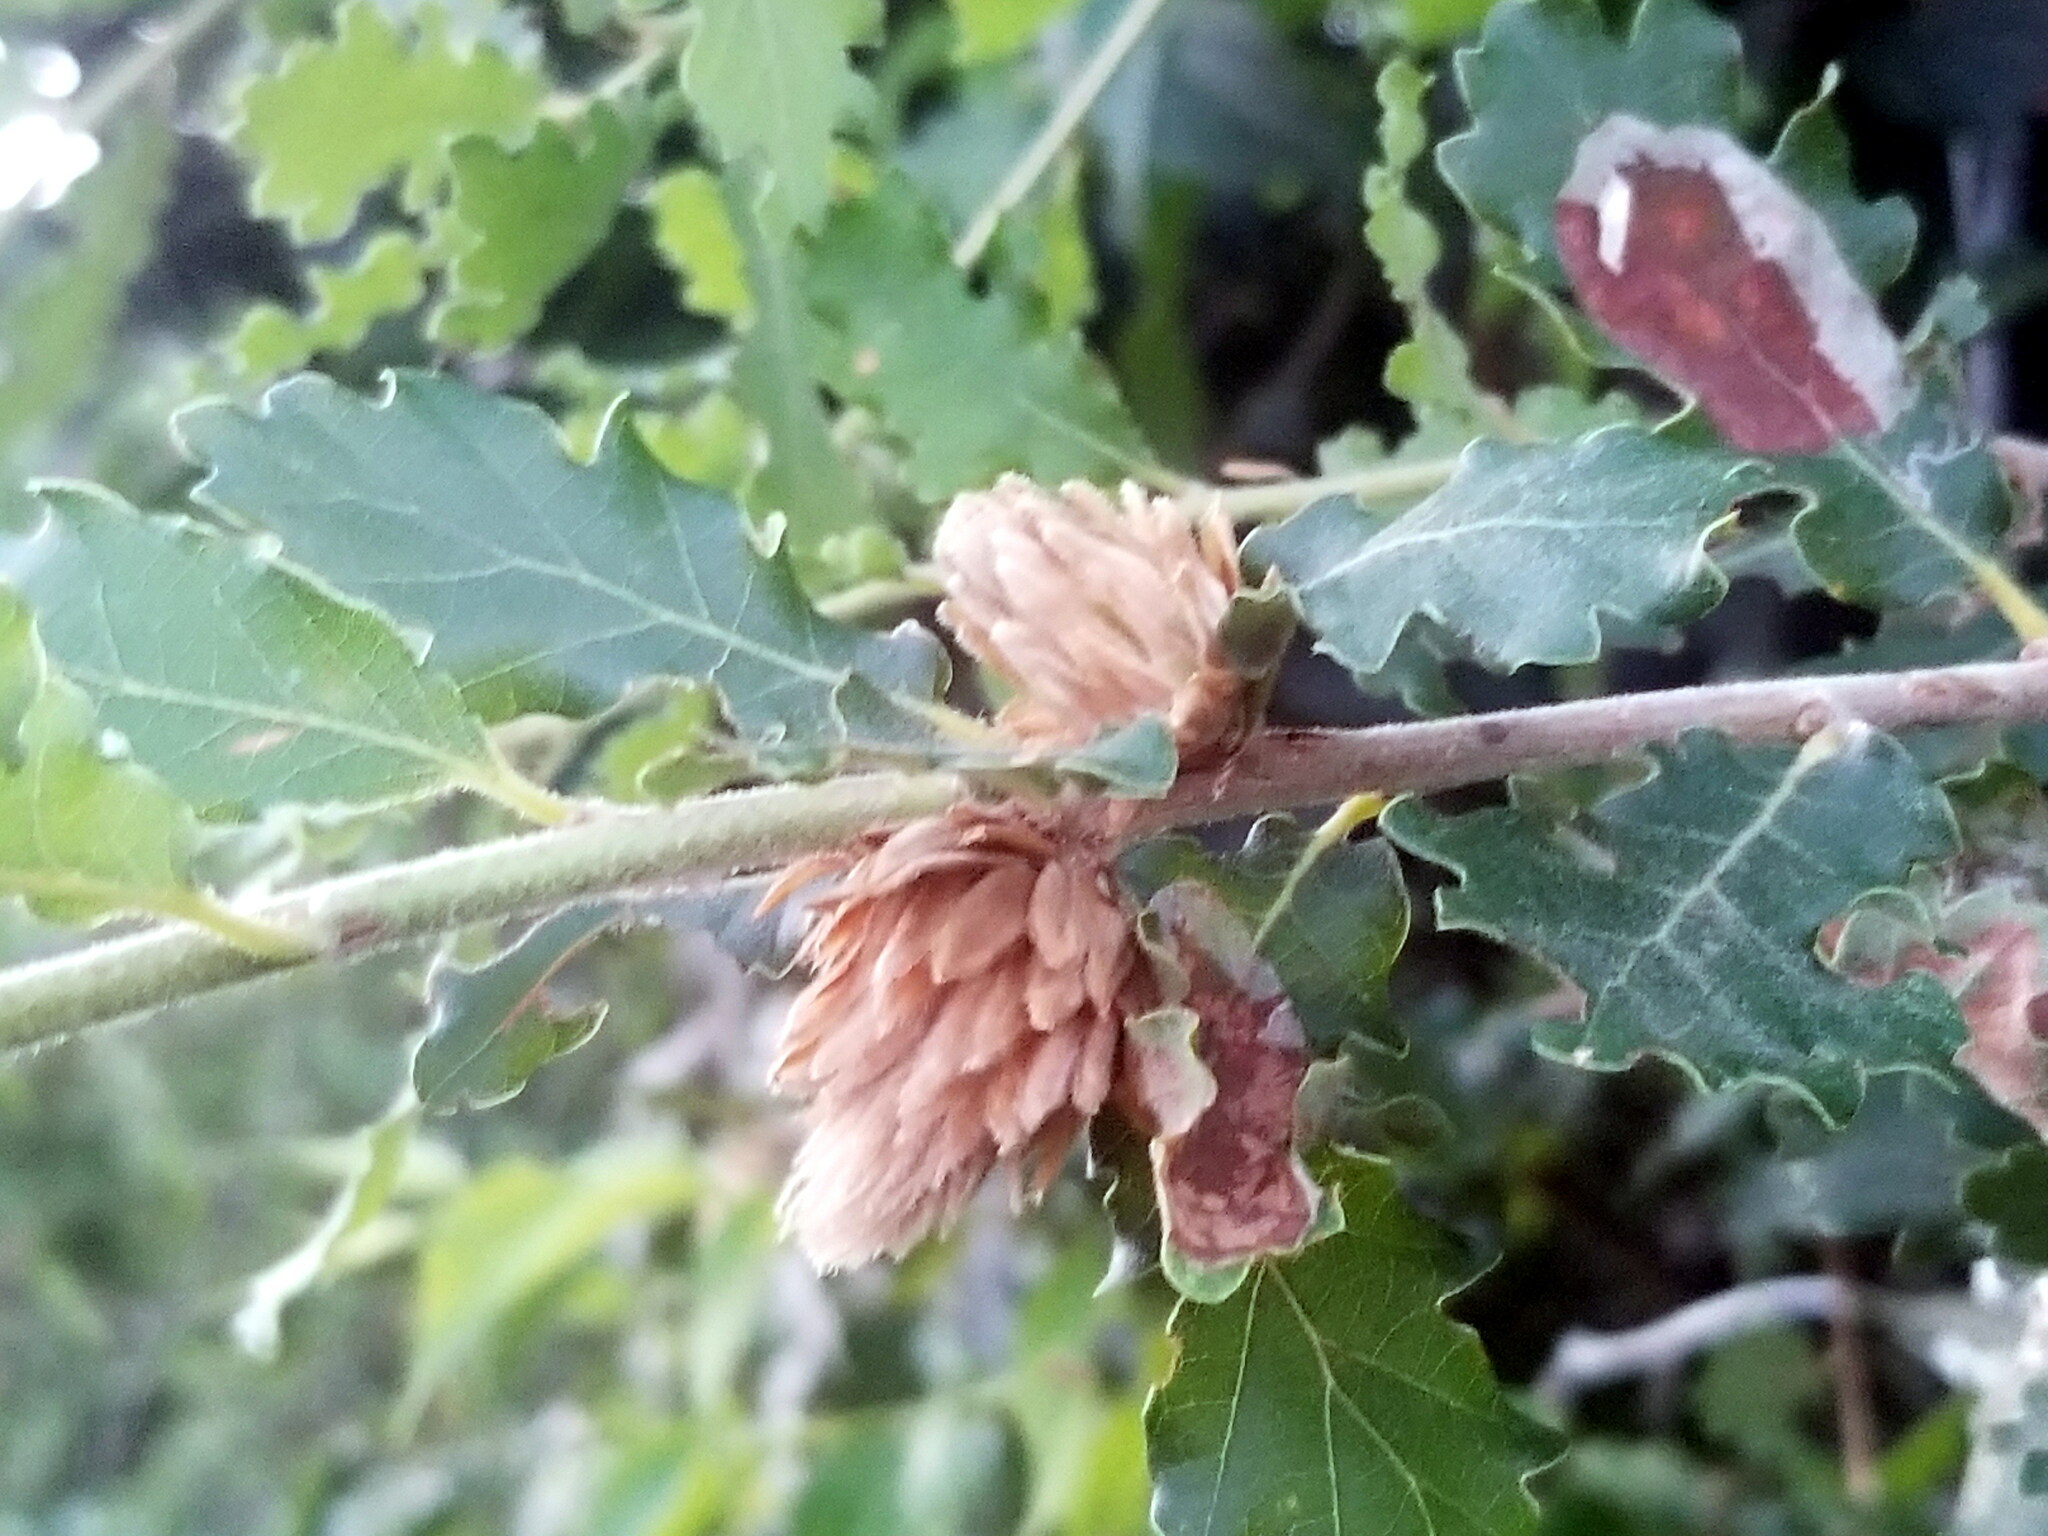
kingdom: Animalia
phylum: Arthropoda
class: Insecta
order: Hymenoptera
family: Cynipidae
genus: Andricus
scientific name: Andricus foecundatrix
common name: Artichoke gall
